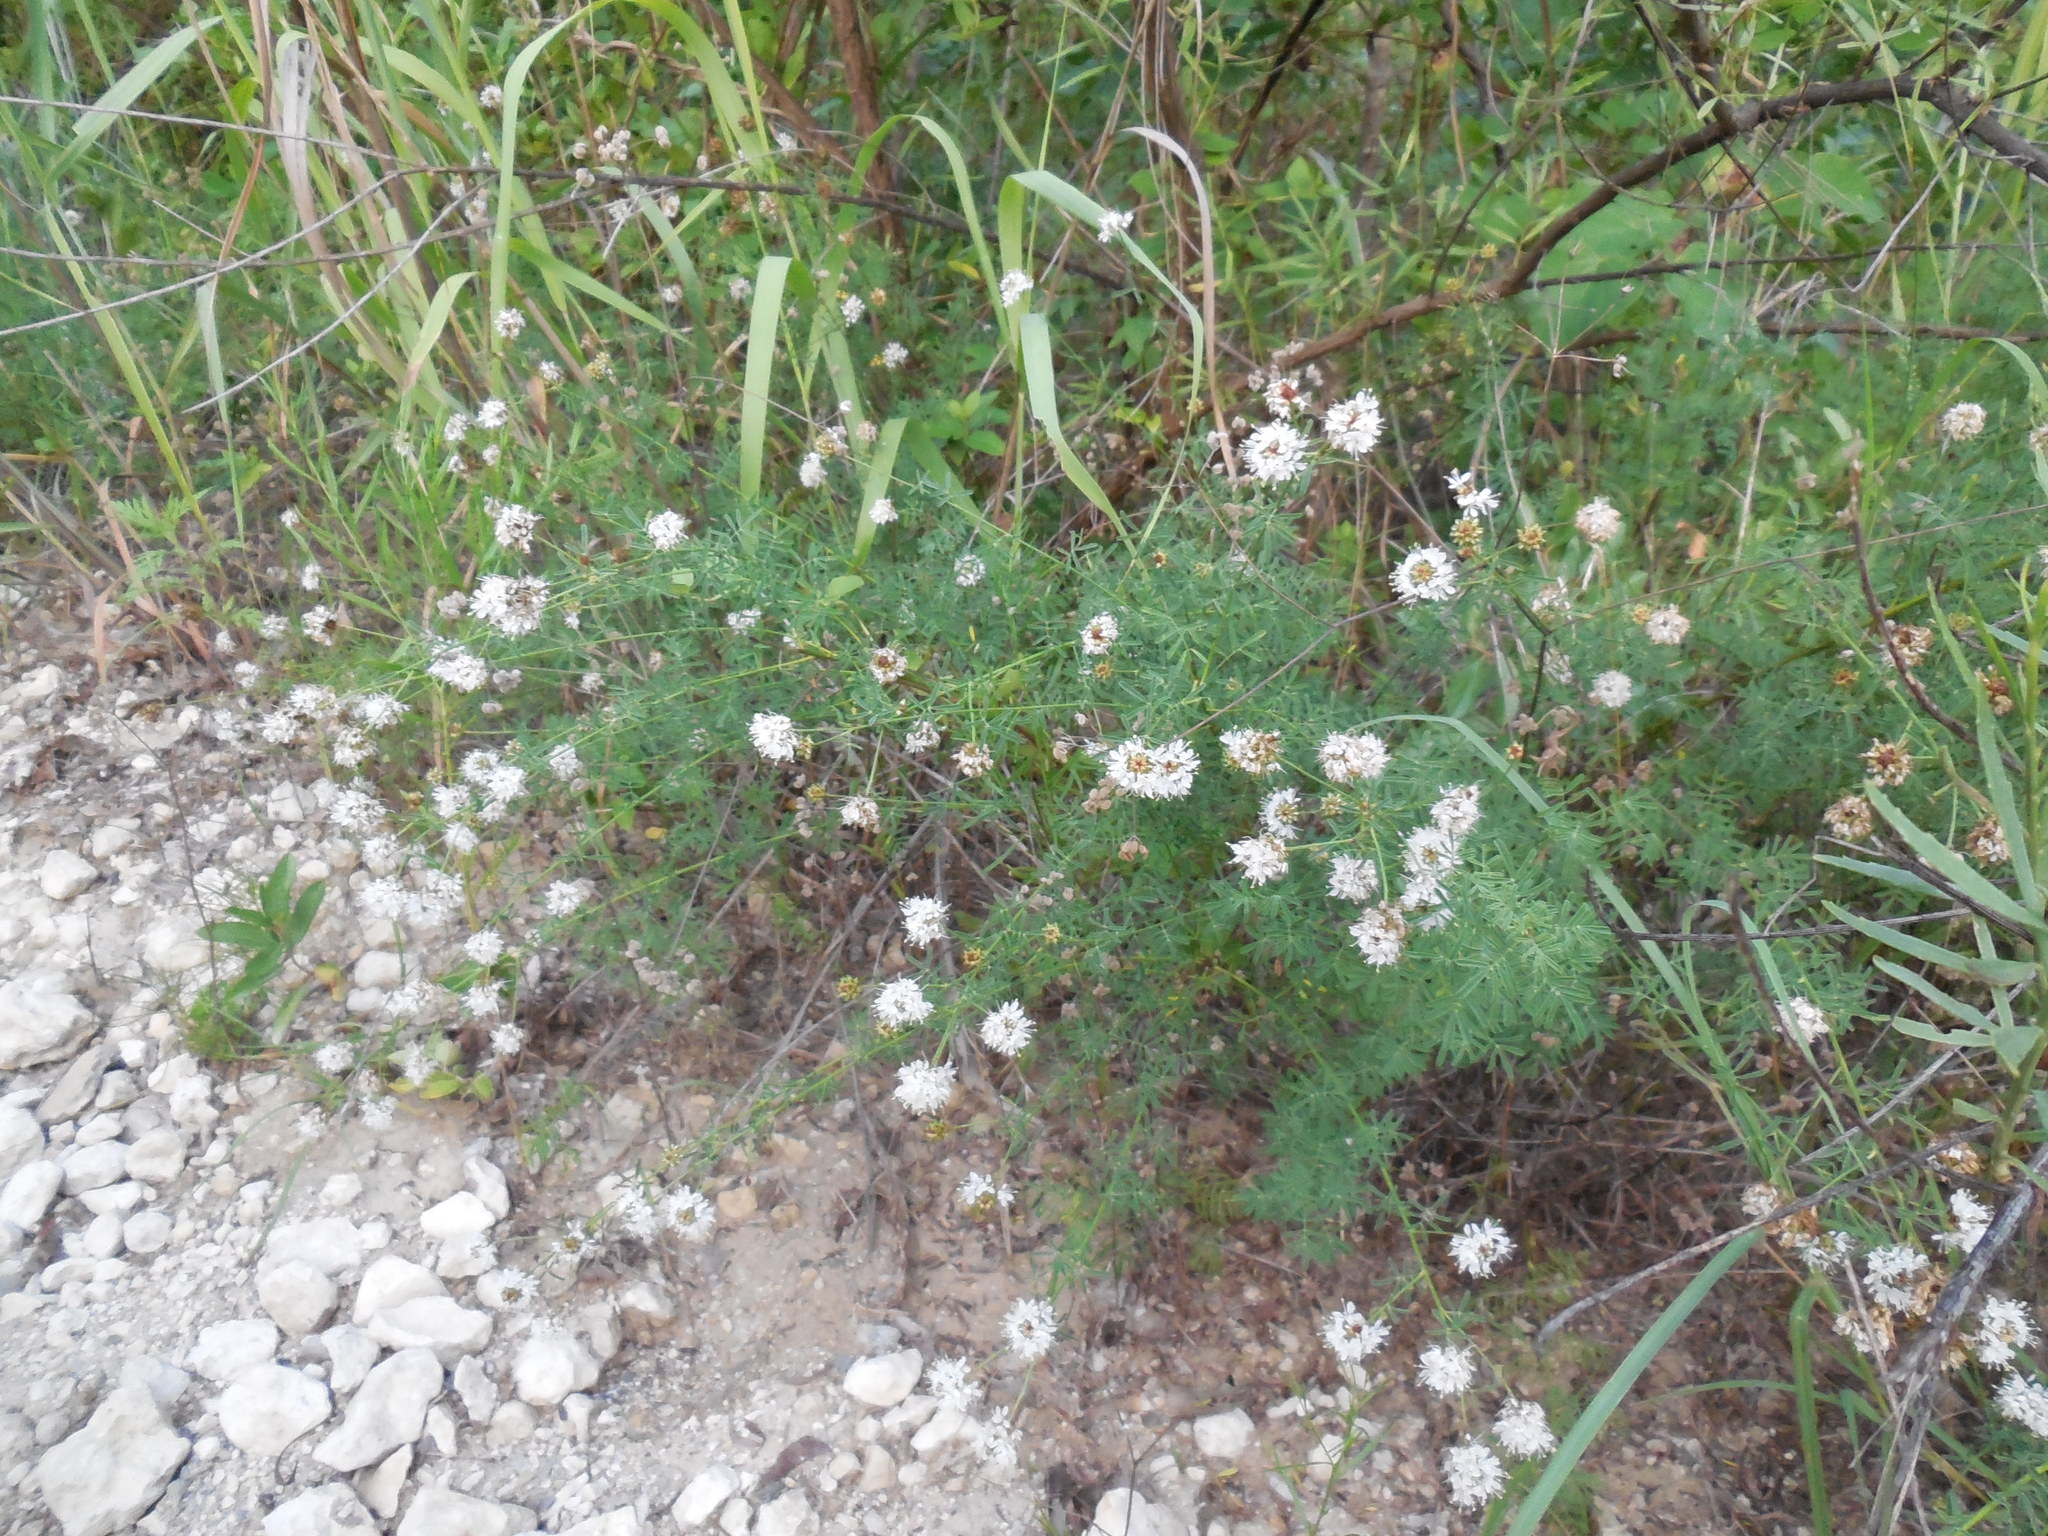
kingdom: Plantae
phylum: Tracheophyta
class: Magnoliopsida
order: Fabales
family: Fabaceae
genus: Dalea
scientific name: Dalea multiflora
